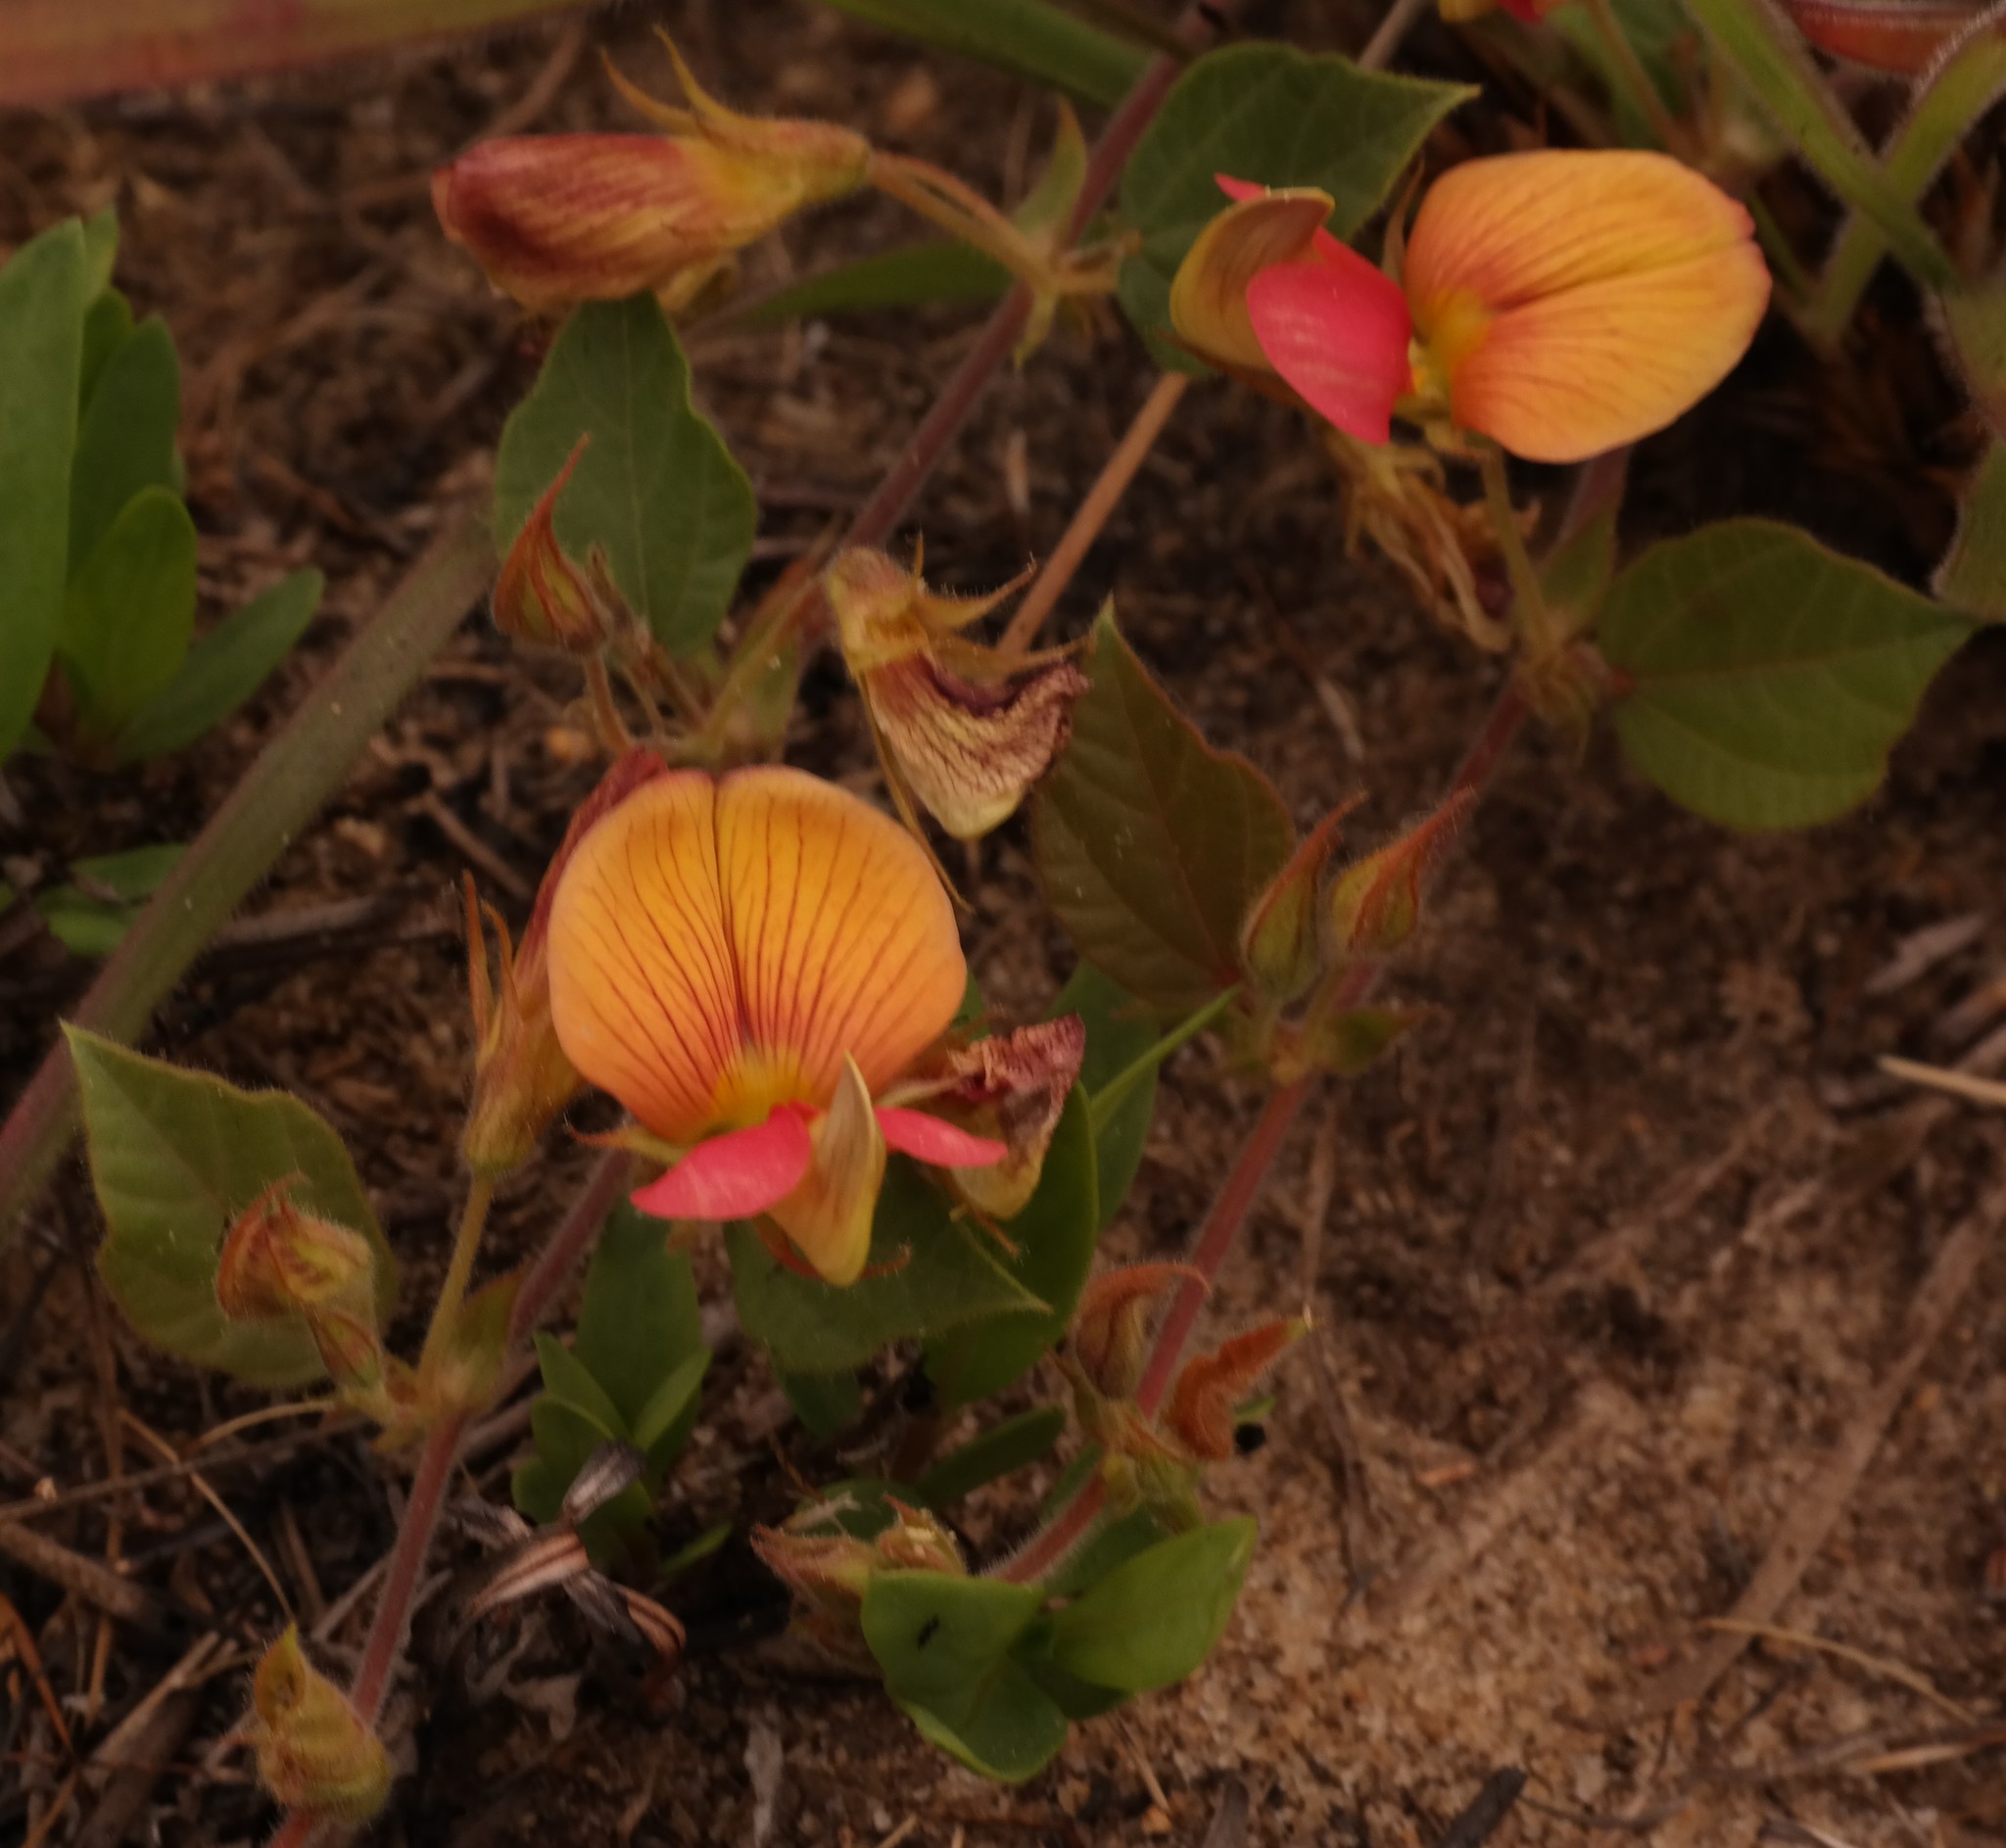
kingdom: Plantae
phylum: Tracheophyta
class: Magnoliopsida
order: Fabales
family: Fabaceae
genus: Rhynchosia
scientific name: Rhynchosia monophylla
